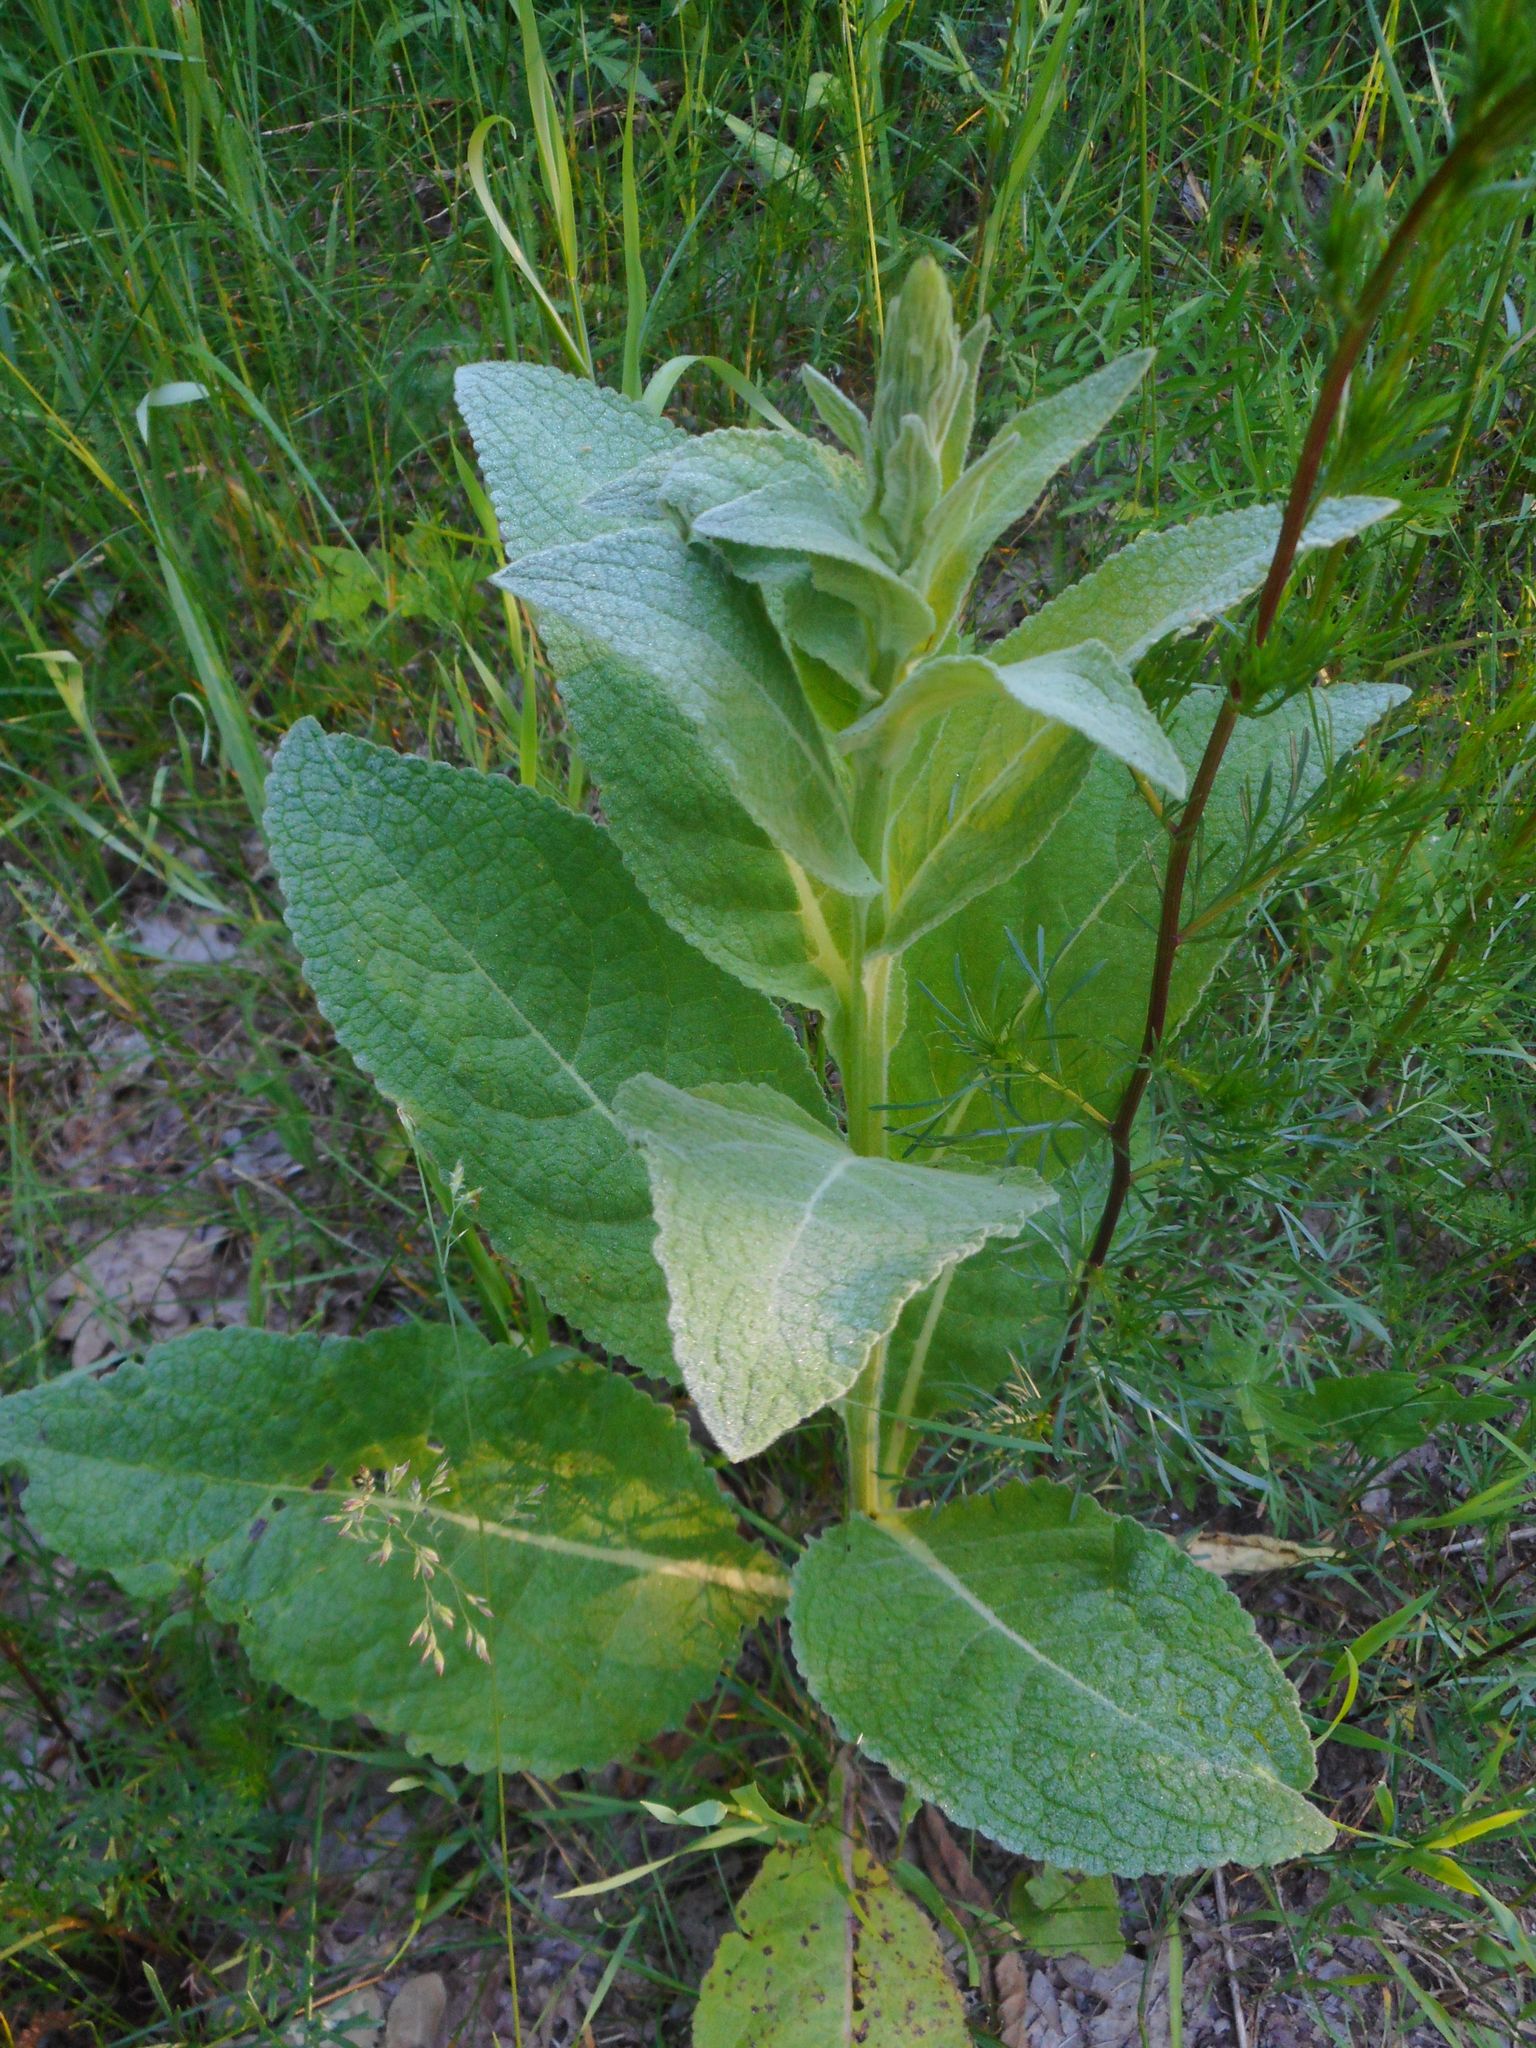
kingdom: Plantae
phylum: Tracheophyta
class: Magnoliopsida
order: Lamiales
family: Scrophulariaceae
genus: Verbascum
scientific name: Verbascum thapsus
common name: Common mullein
